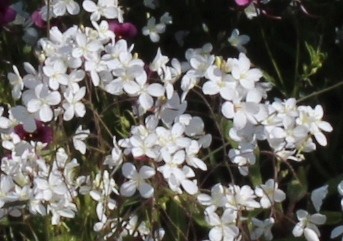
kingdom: Plantae
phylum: Tracheophyta
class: Magnoliopsida
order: Brassicales
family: Brassicaceae
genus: Heliophila
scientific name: Heliophila amplexicaulis
